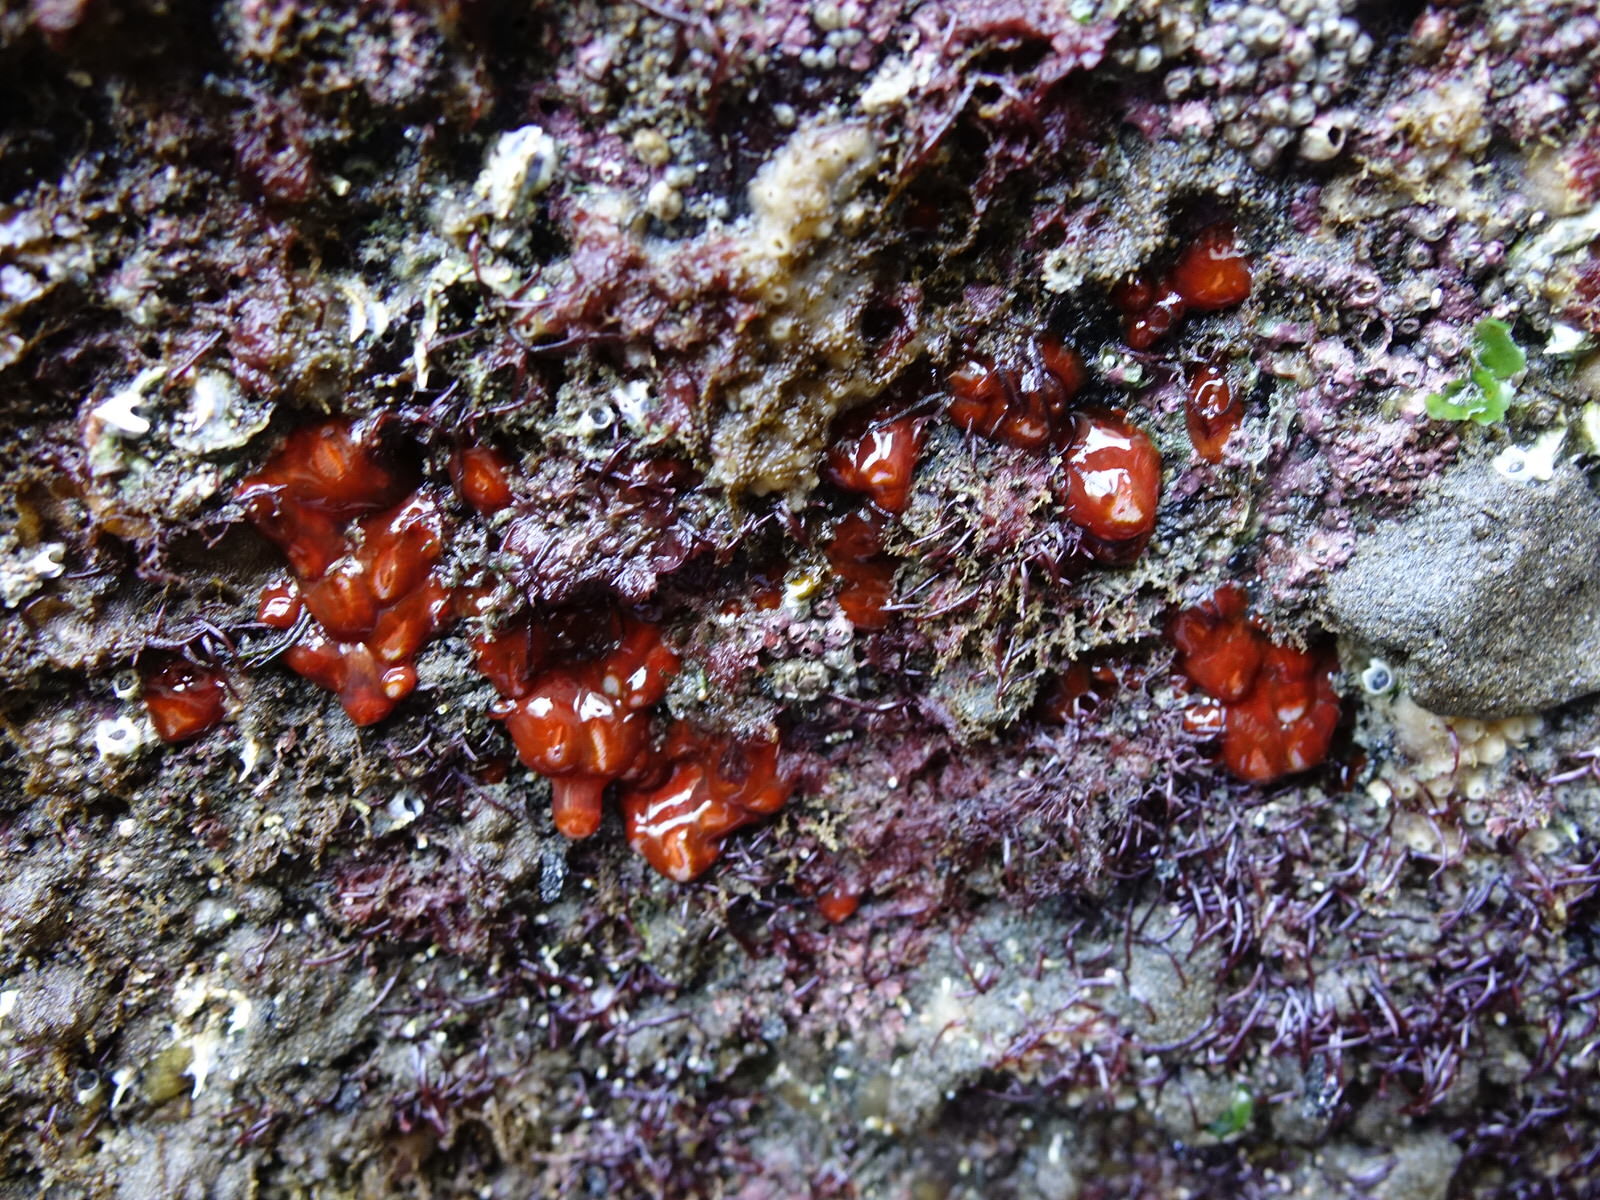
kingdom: Animalia
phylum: Cnidaria
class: Anthozoa
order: Corallimorpharia
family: Corallimorphidae
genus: Corynactis
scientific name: Corynactis australis
